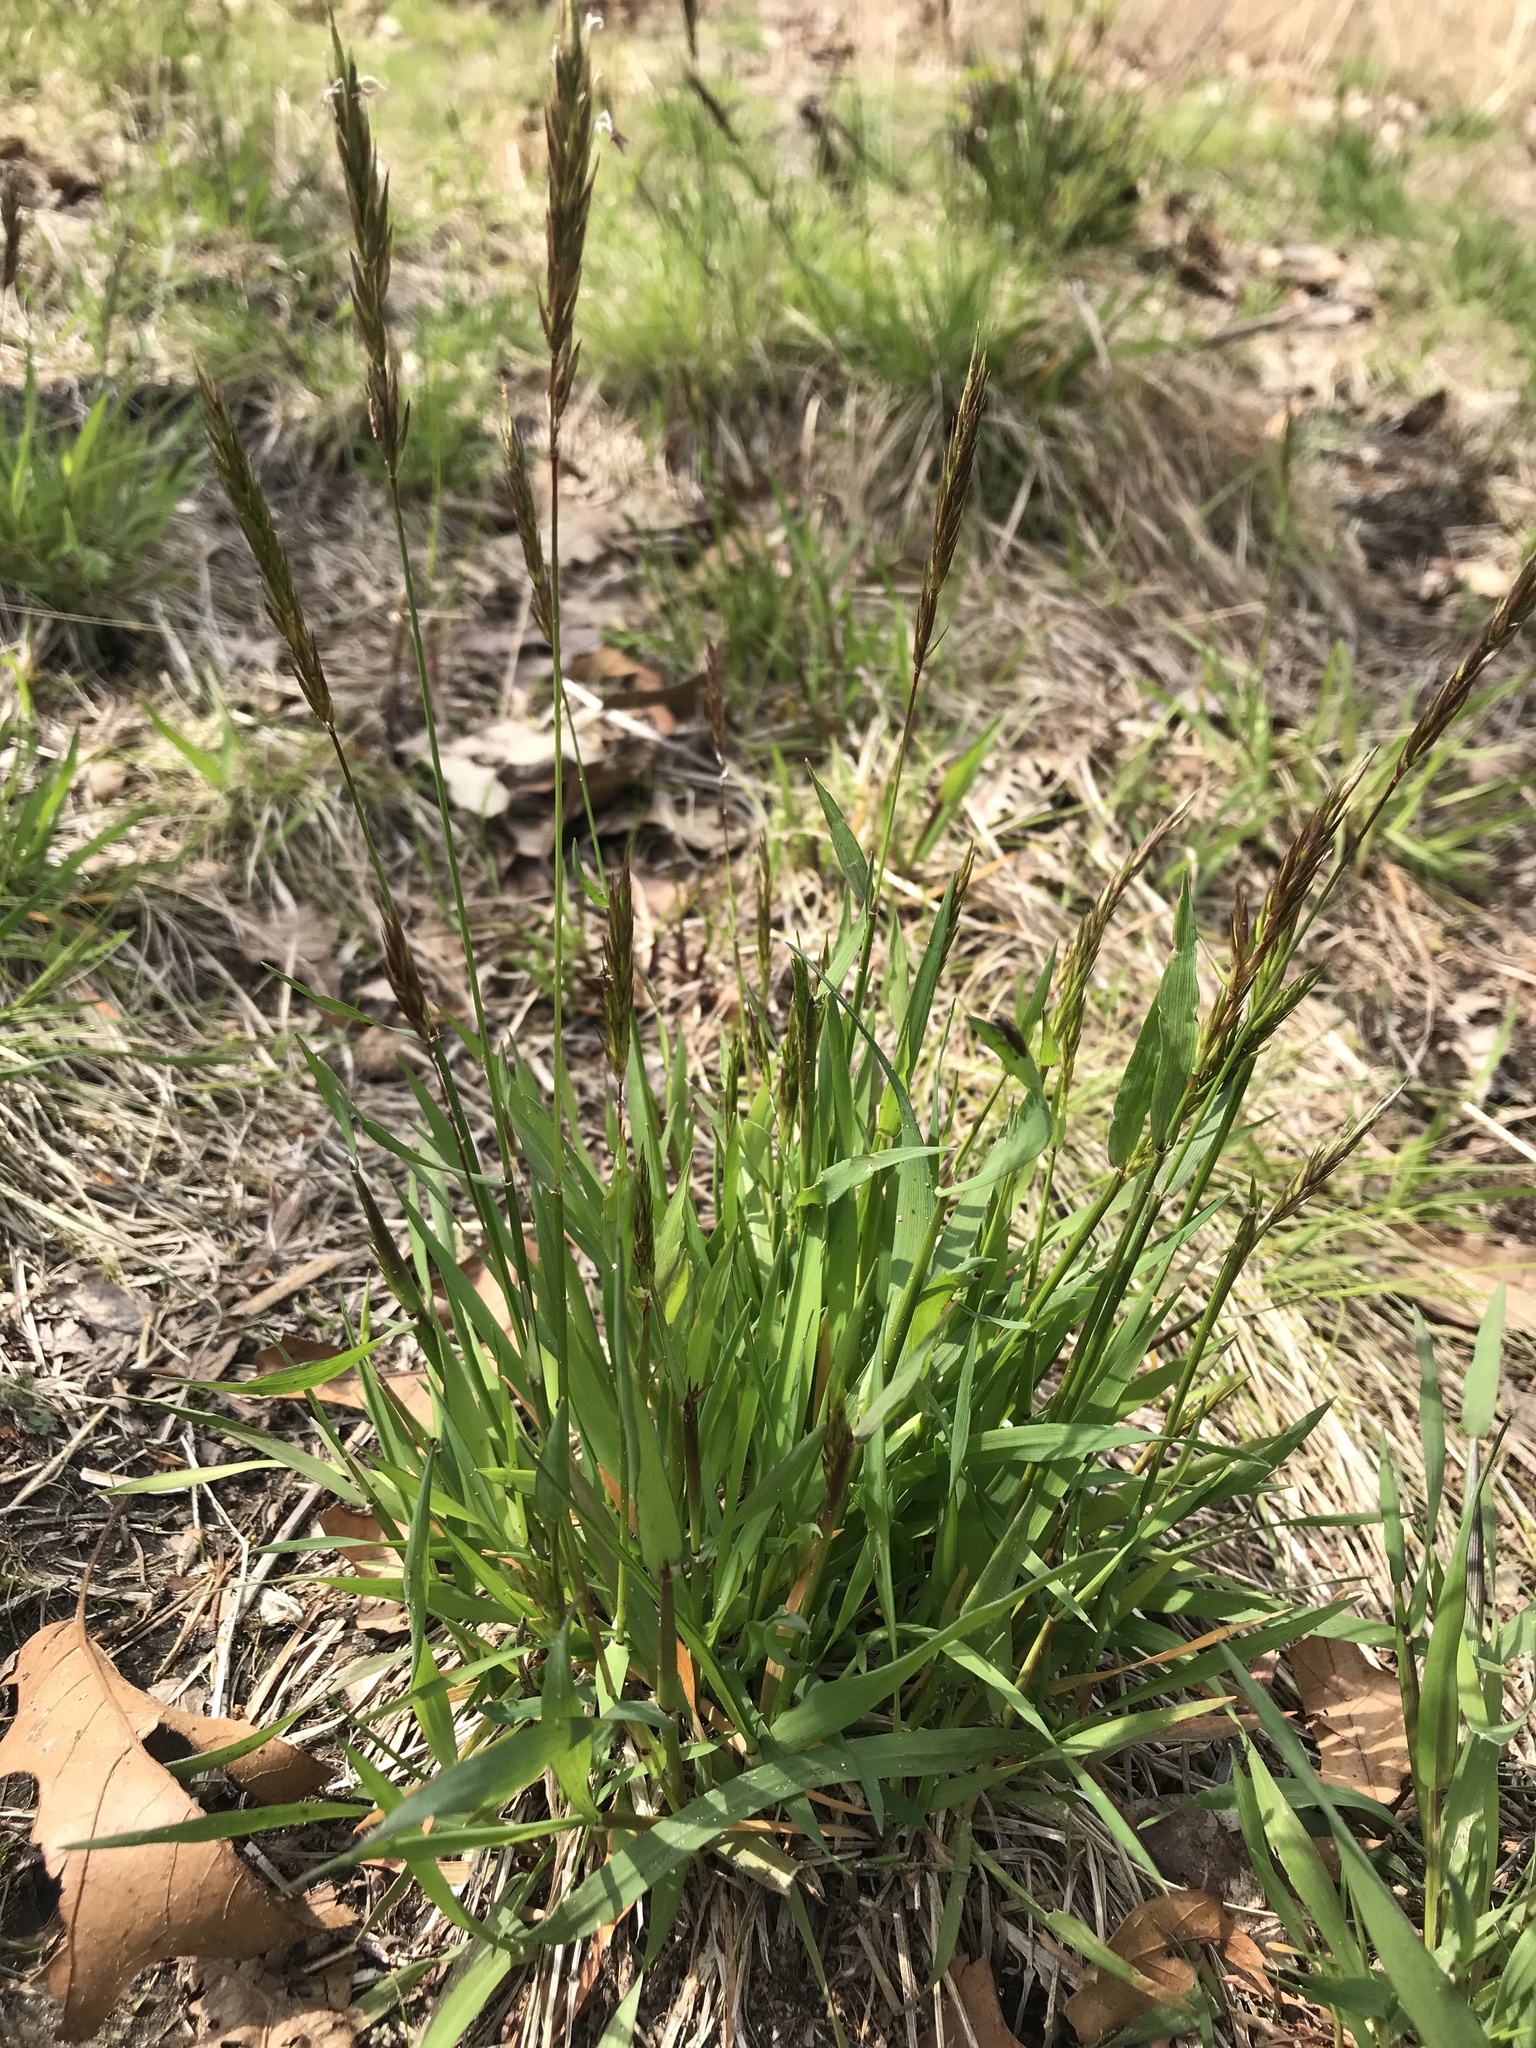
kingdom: Plantae
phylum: Tracheophyta
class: Liliopsida
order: Poales
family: Poaceae
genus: Anthoxanthum
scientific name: Anthoxanthum odoratum
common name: Sweet vernalgrass
